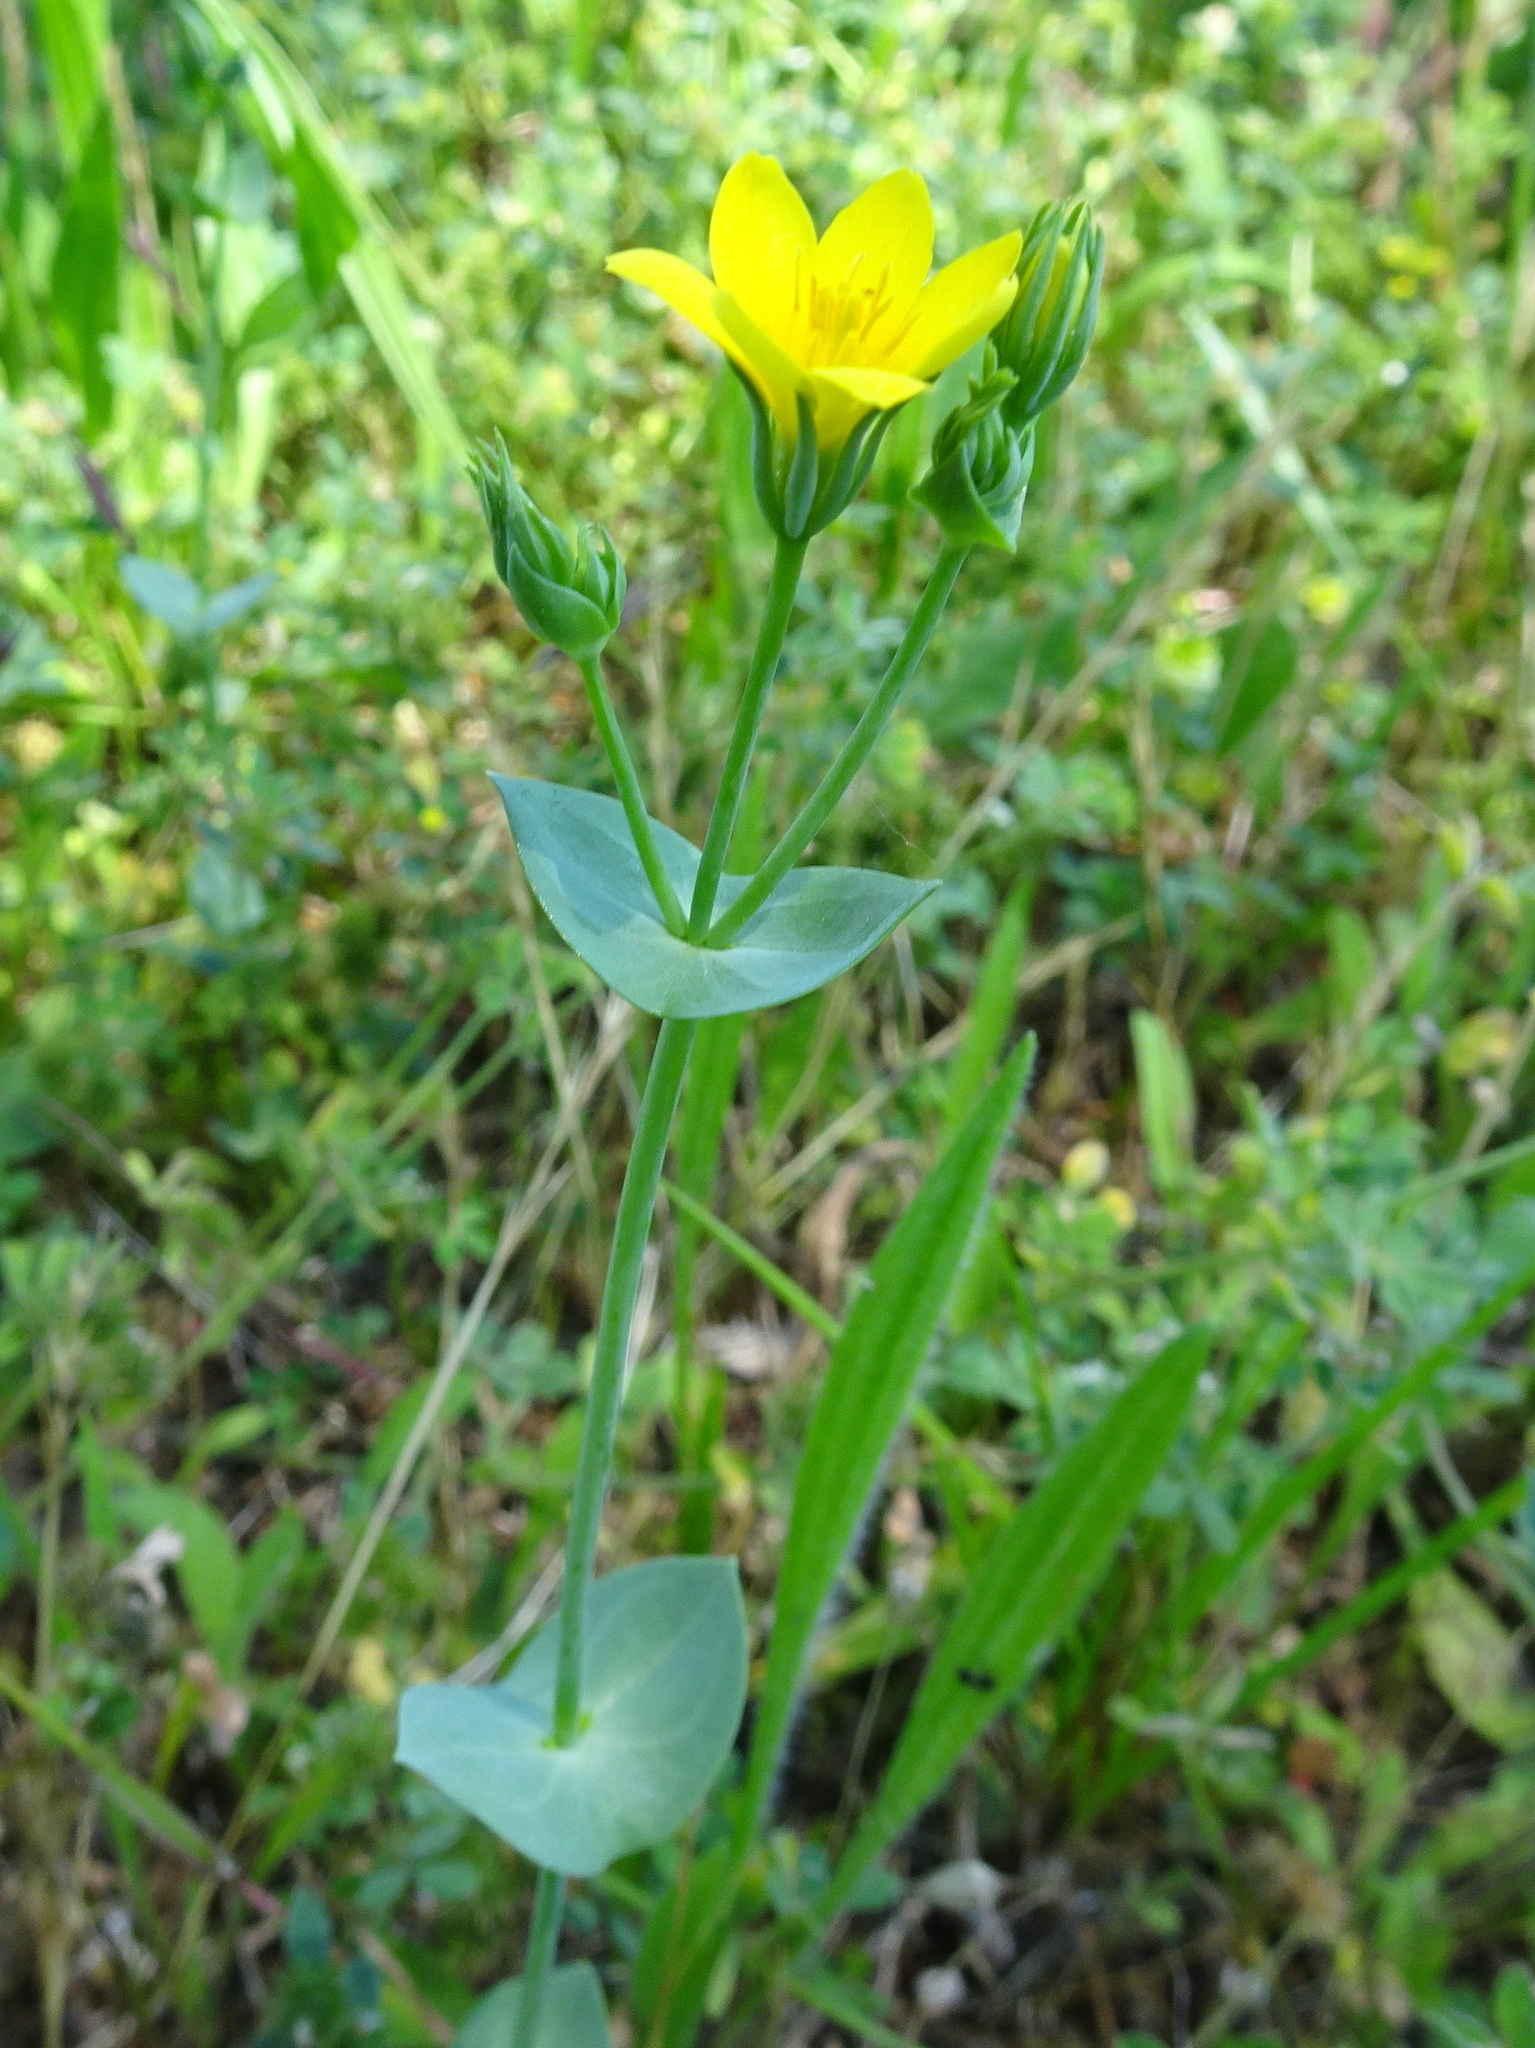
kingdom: Plantae
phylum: Tracheophyta
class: Magnoliopsida
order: Gentianales
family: Gentianaceae
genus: Blackstonia
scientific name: Blackstonia perfoliata
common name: Yellow-wort
